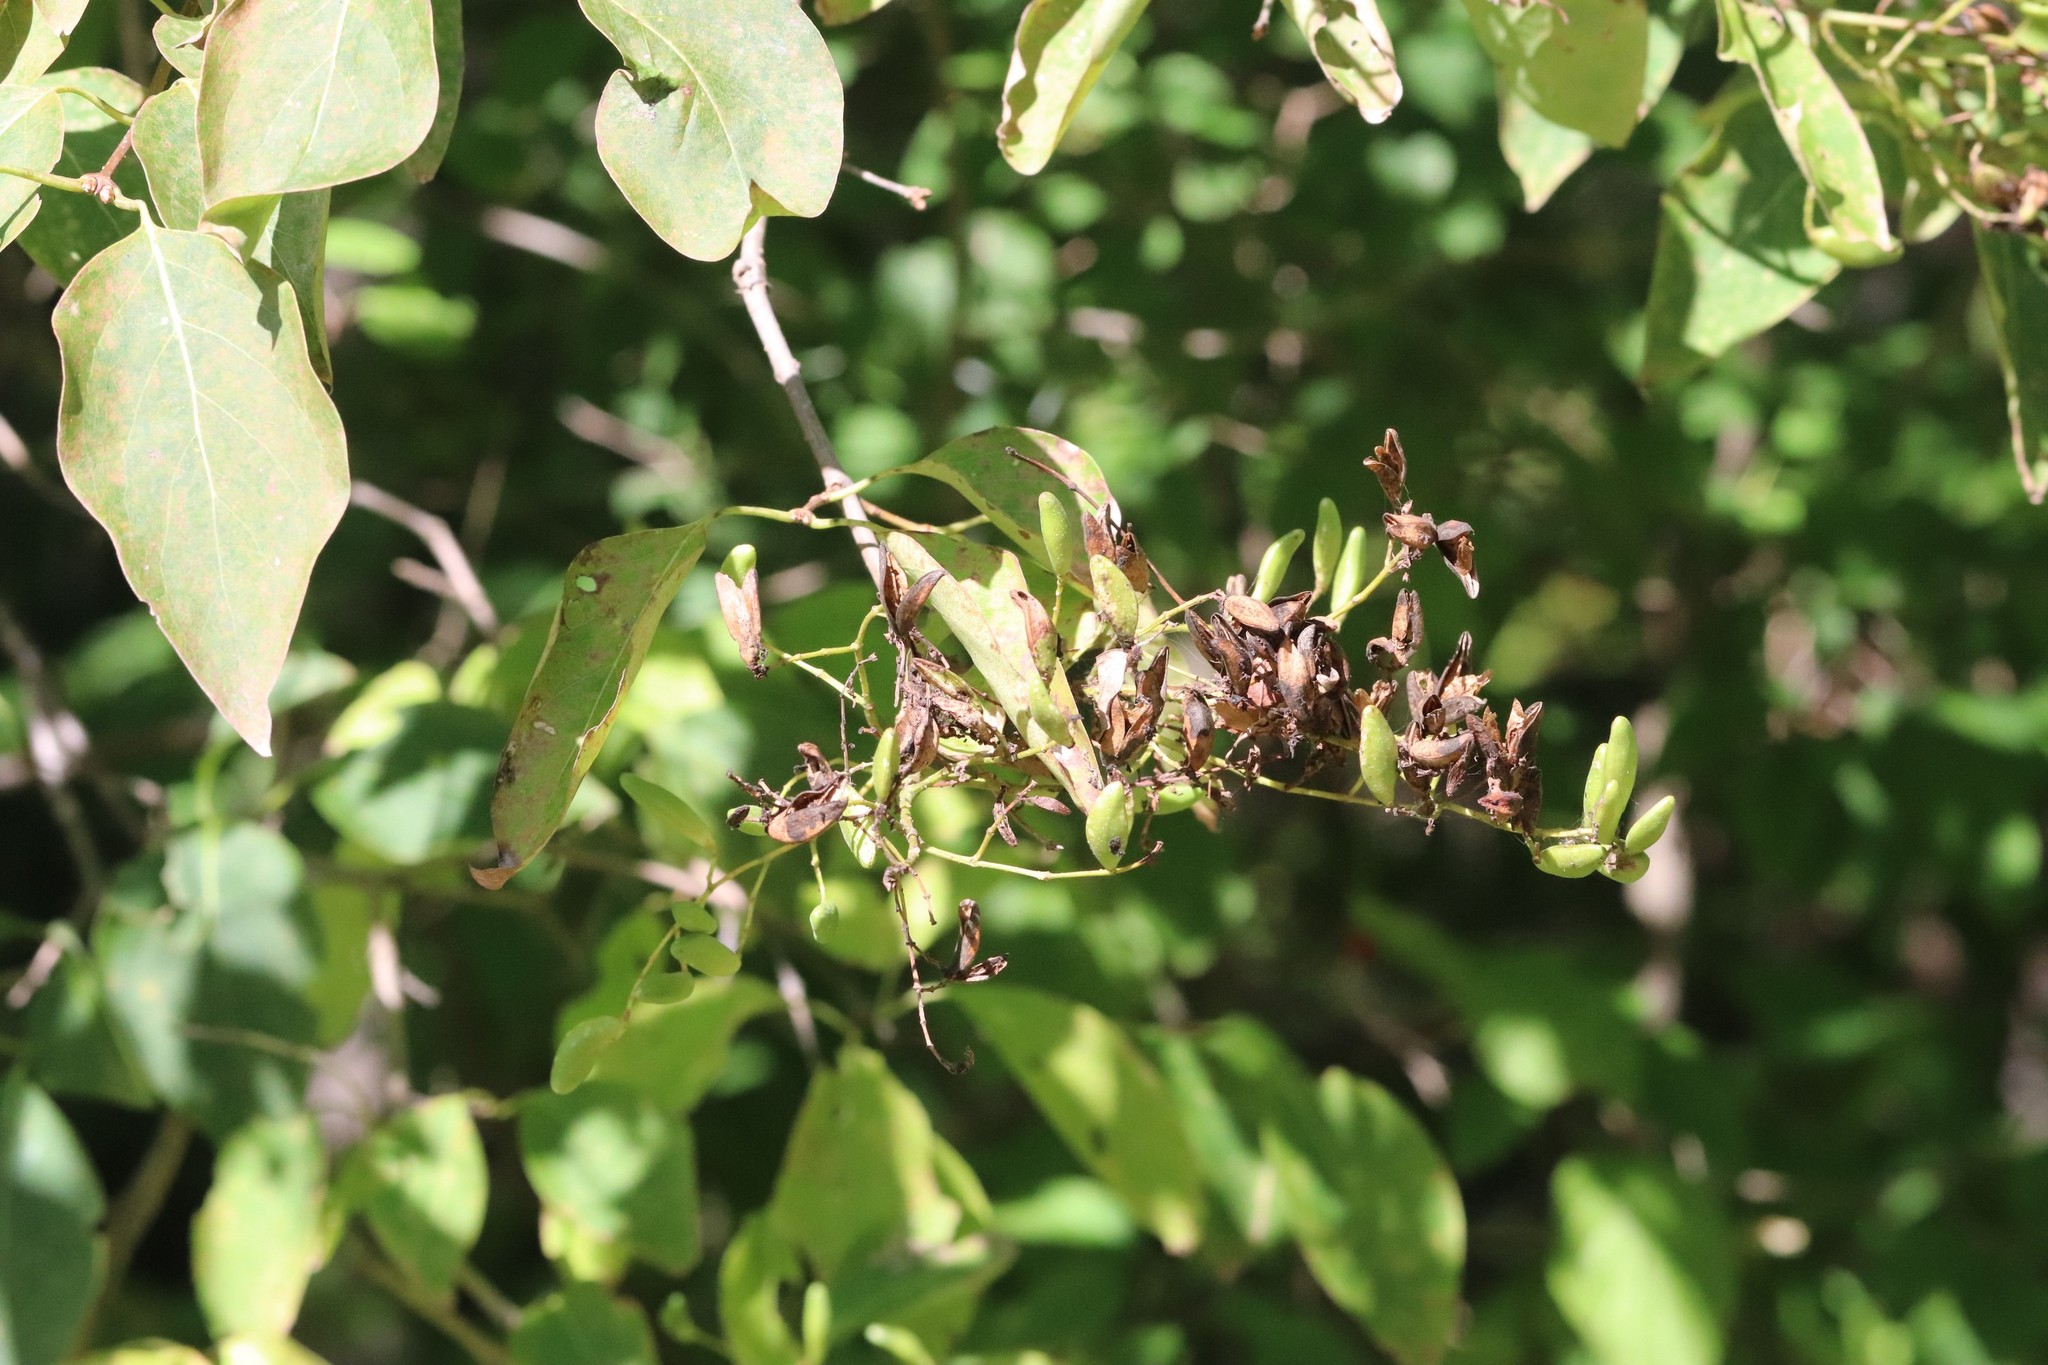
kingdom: Plantae
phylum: Tracheophyta
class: Magnoliopsida
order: Lamiales
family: Oleaceae
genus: Syringa
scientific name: Syringa reticulata
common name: Japanese tree lilac
